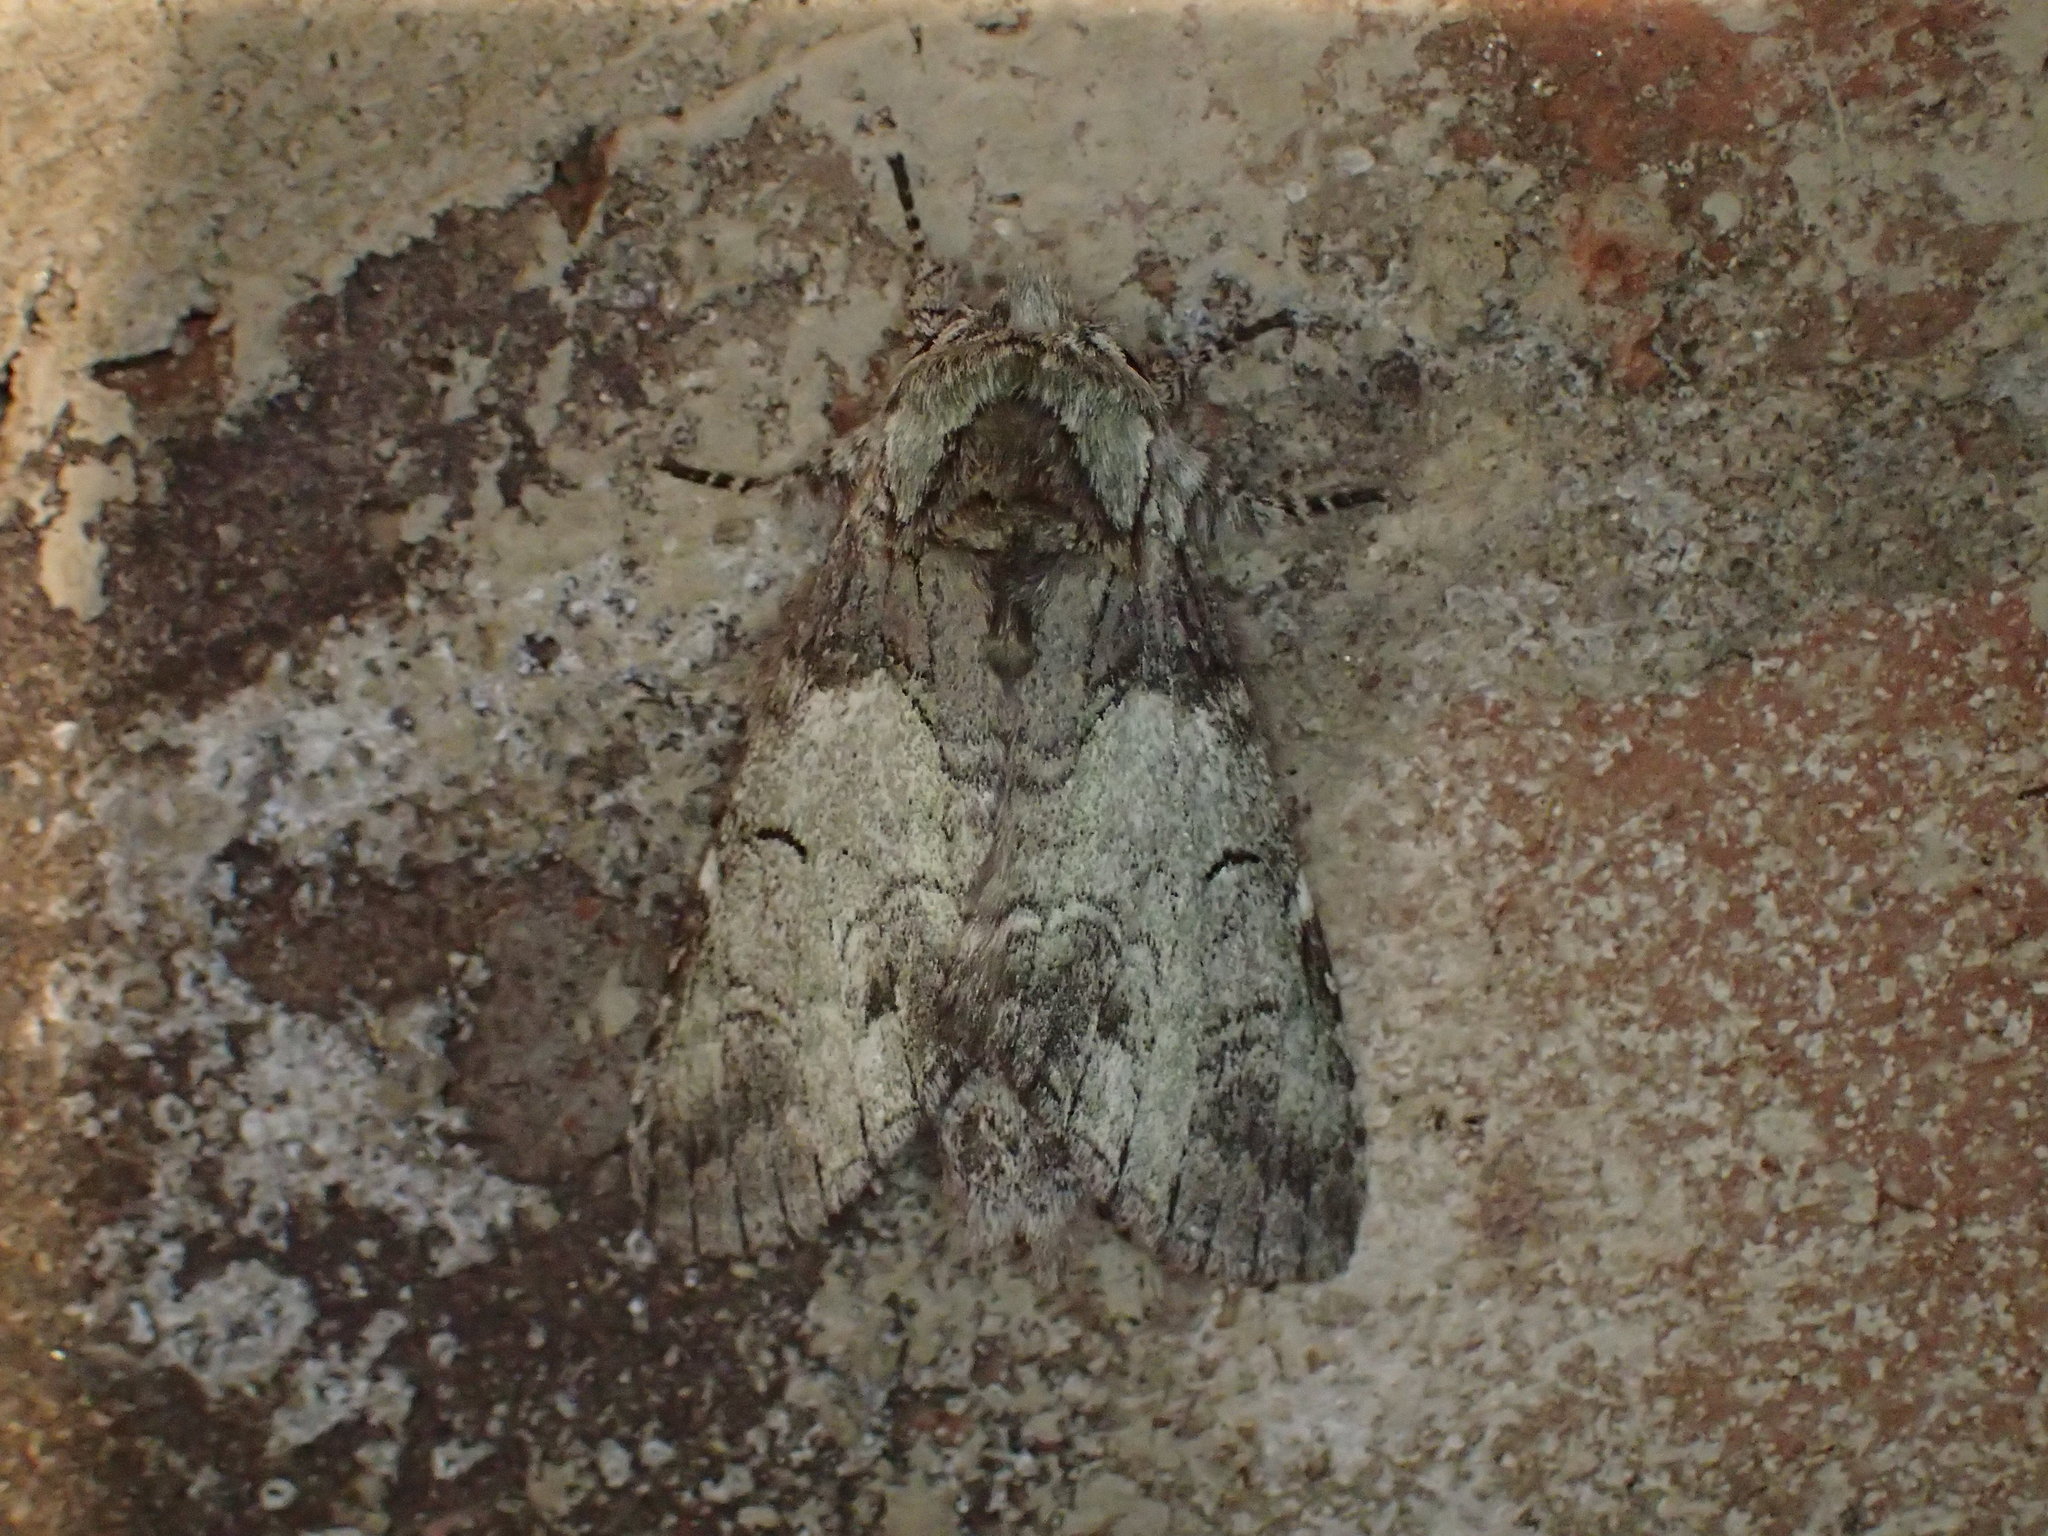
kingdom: Animalia
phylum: Arthropoda
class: Insecta
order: Lepidoptera
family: Notodontidae
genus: Macrurocampa
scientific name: Macrurocampa marthesia
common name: Mottled prominent
